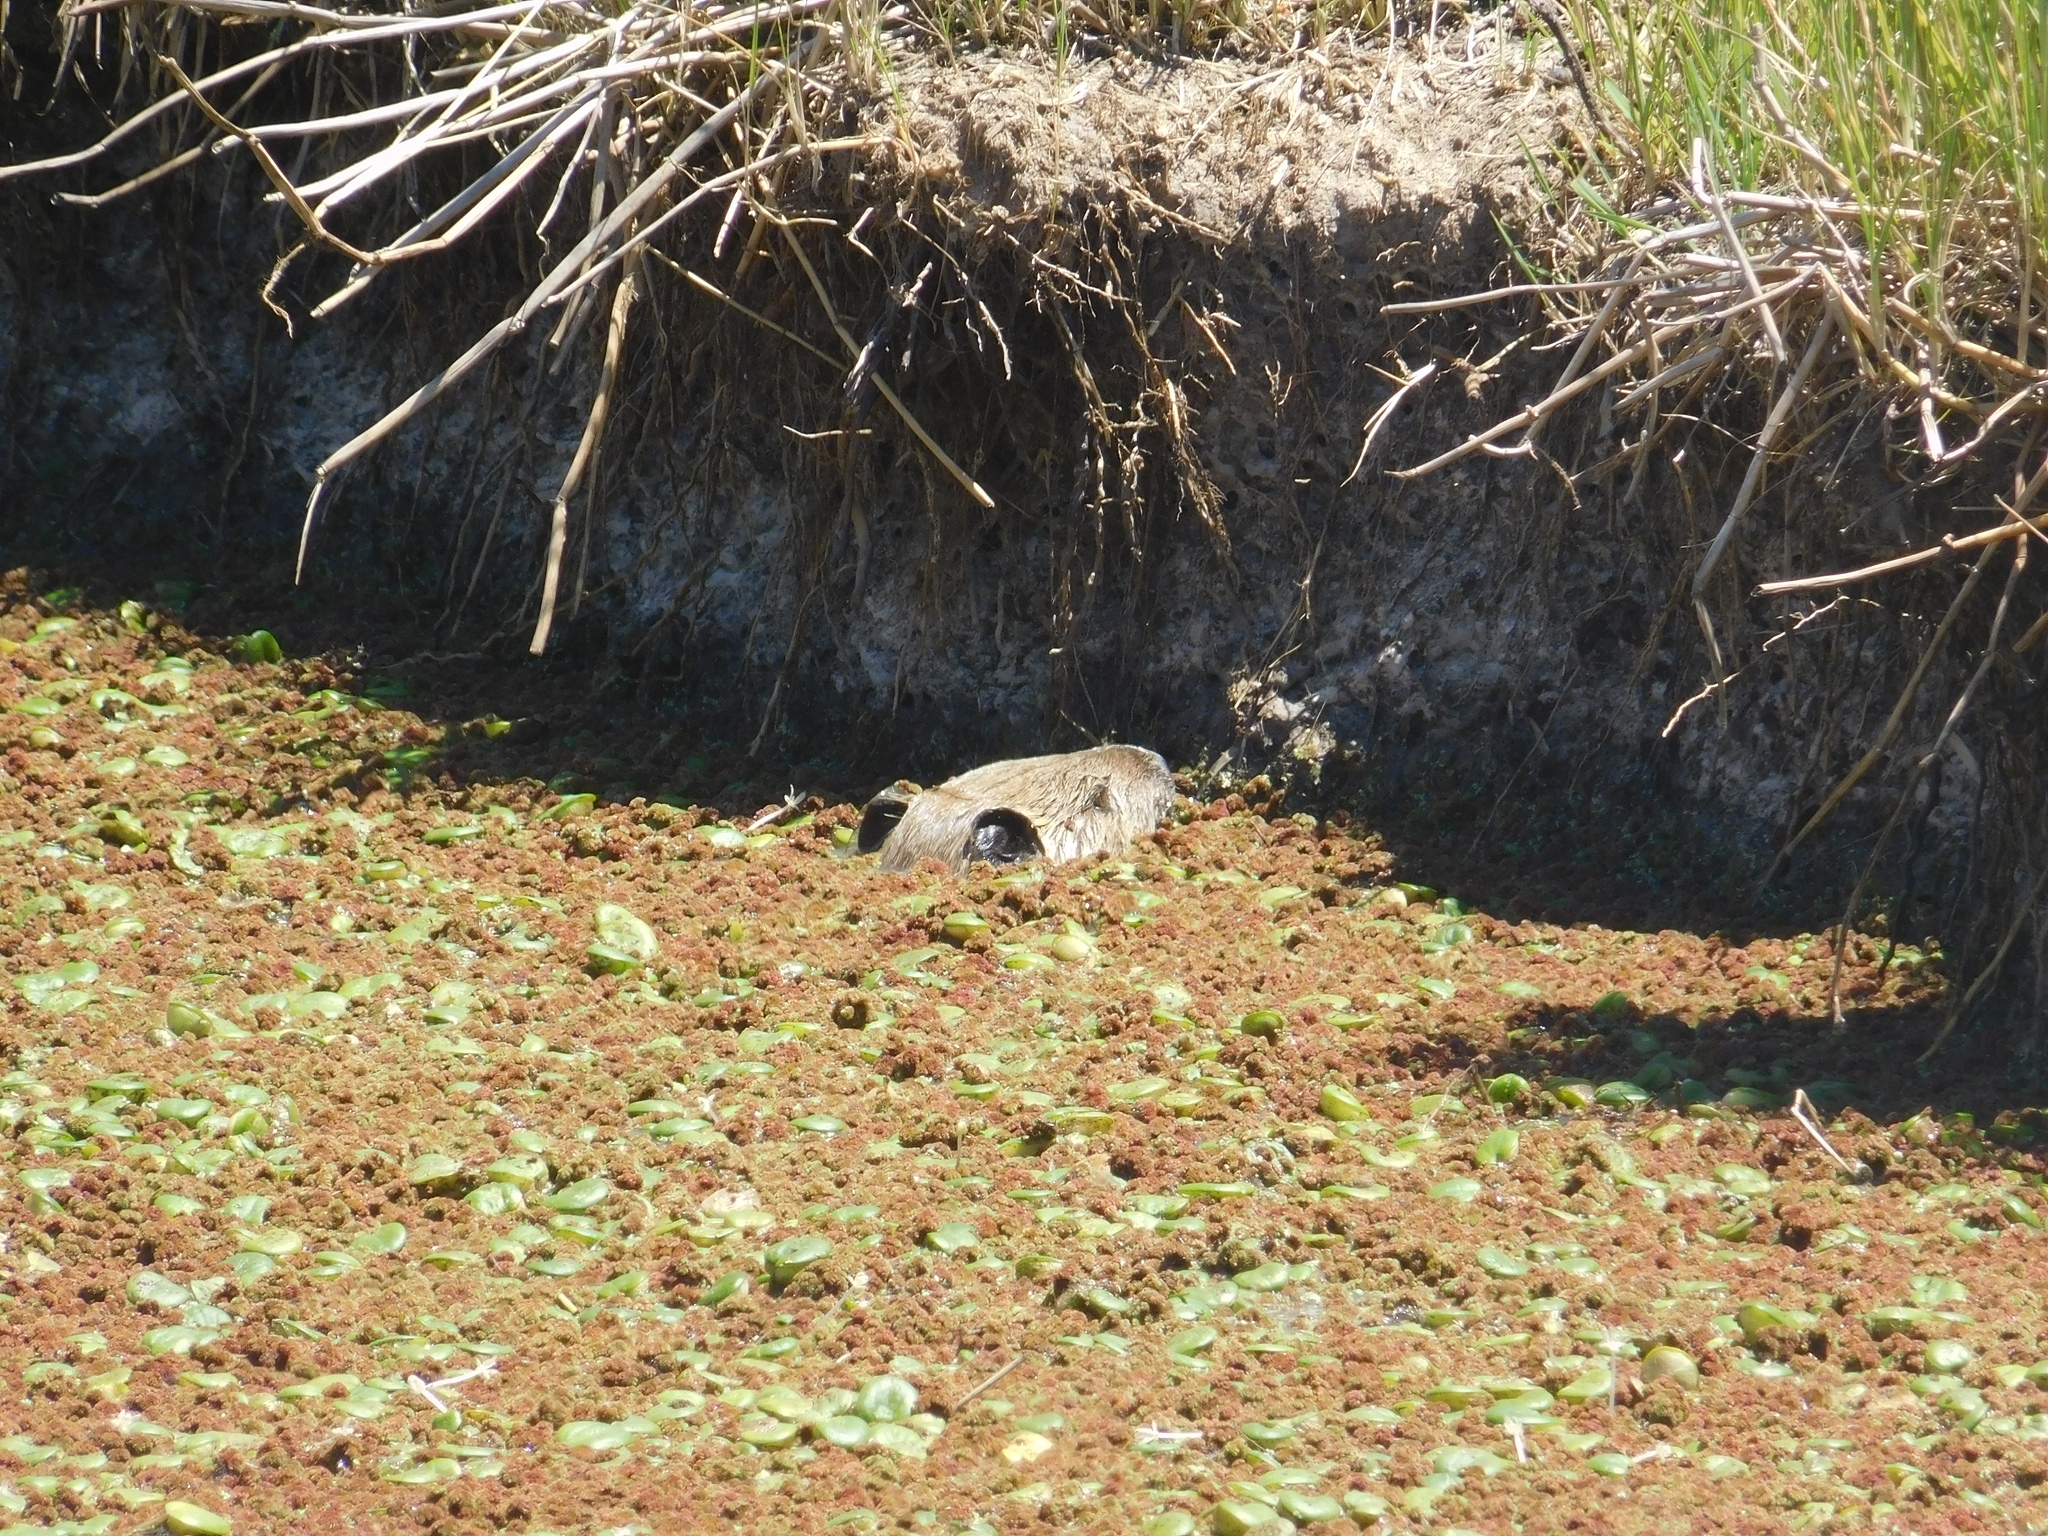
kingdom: Animalia
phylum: Chordata
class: Mammalia
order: Rodentia
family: Myocastoridae
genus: Myocastor
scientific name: Myocastor coypus
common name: Coypu
